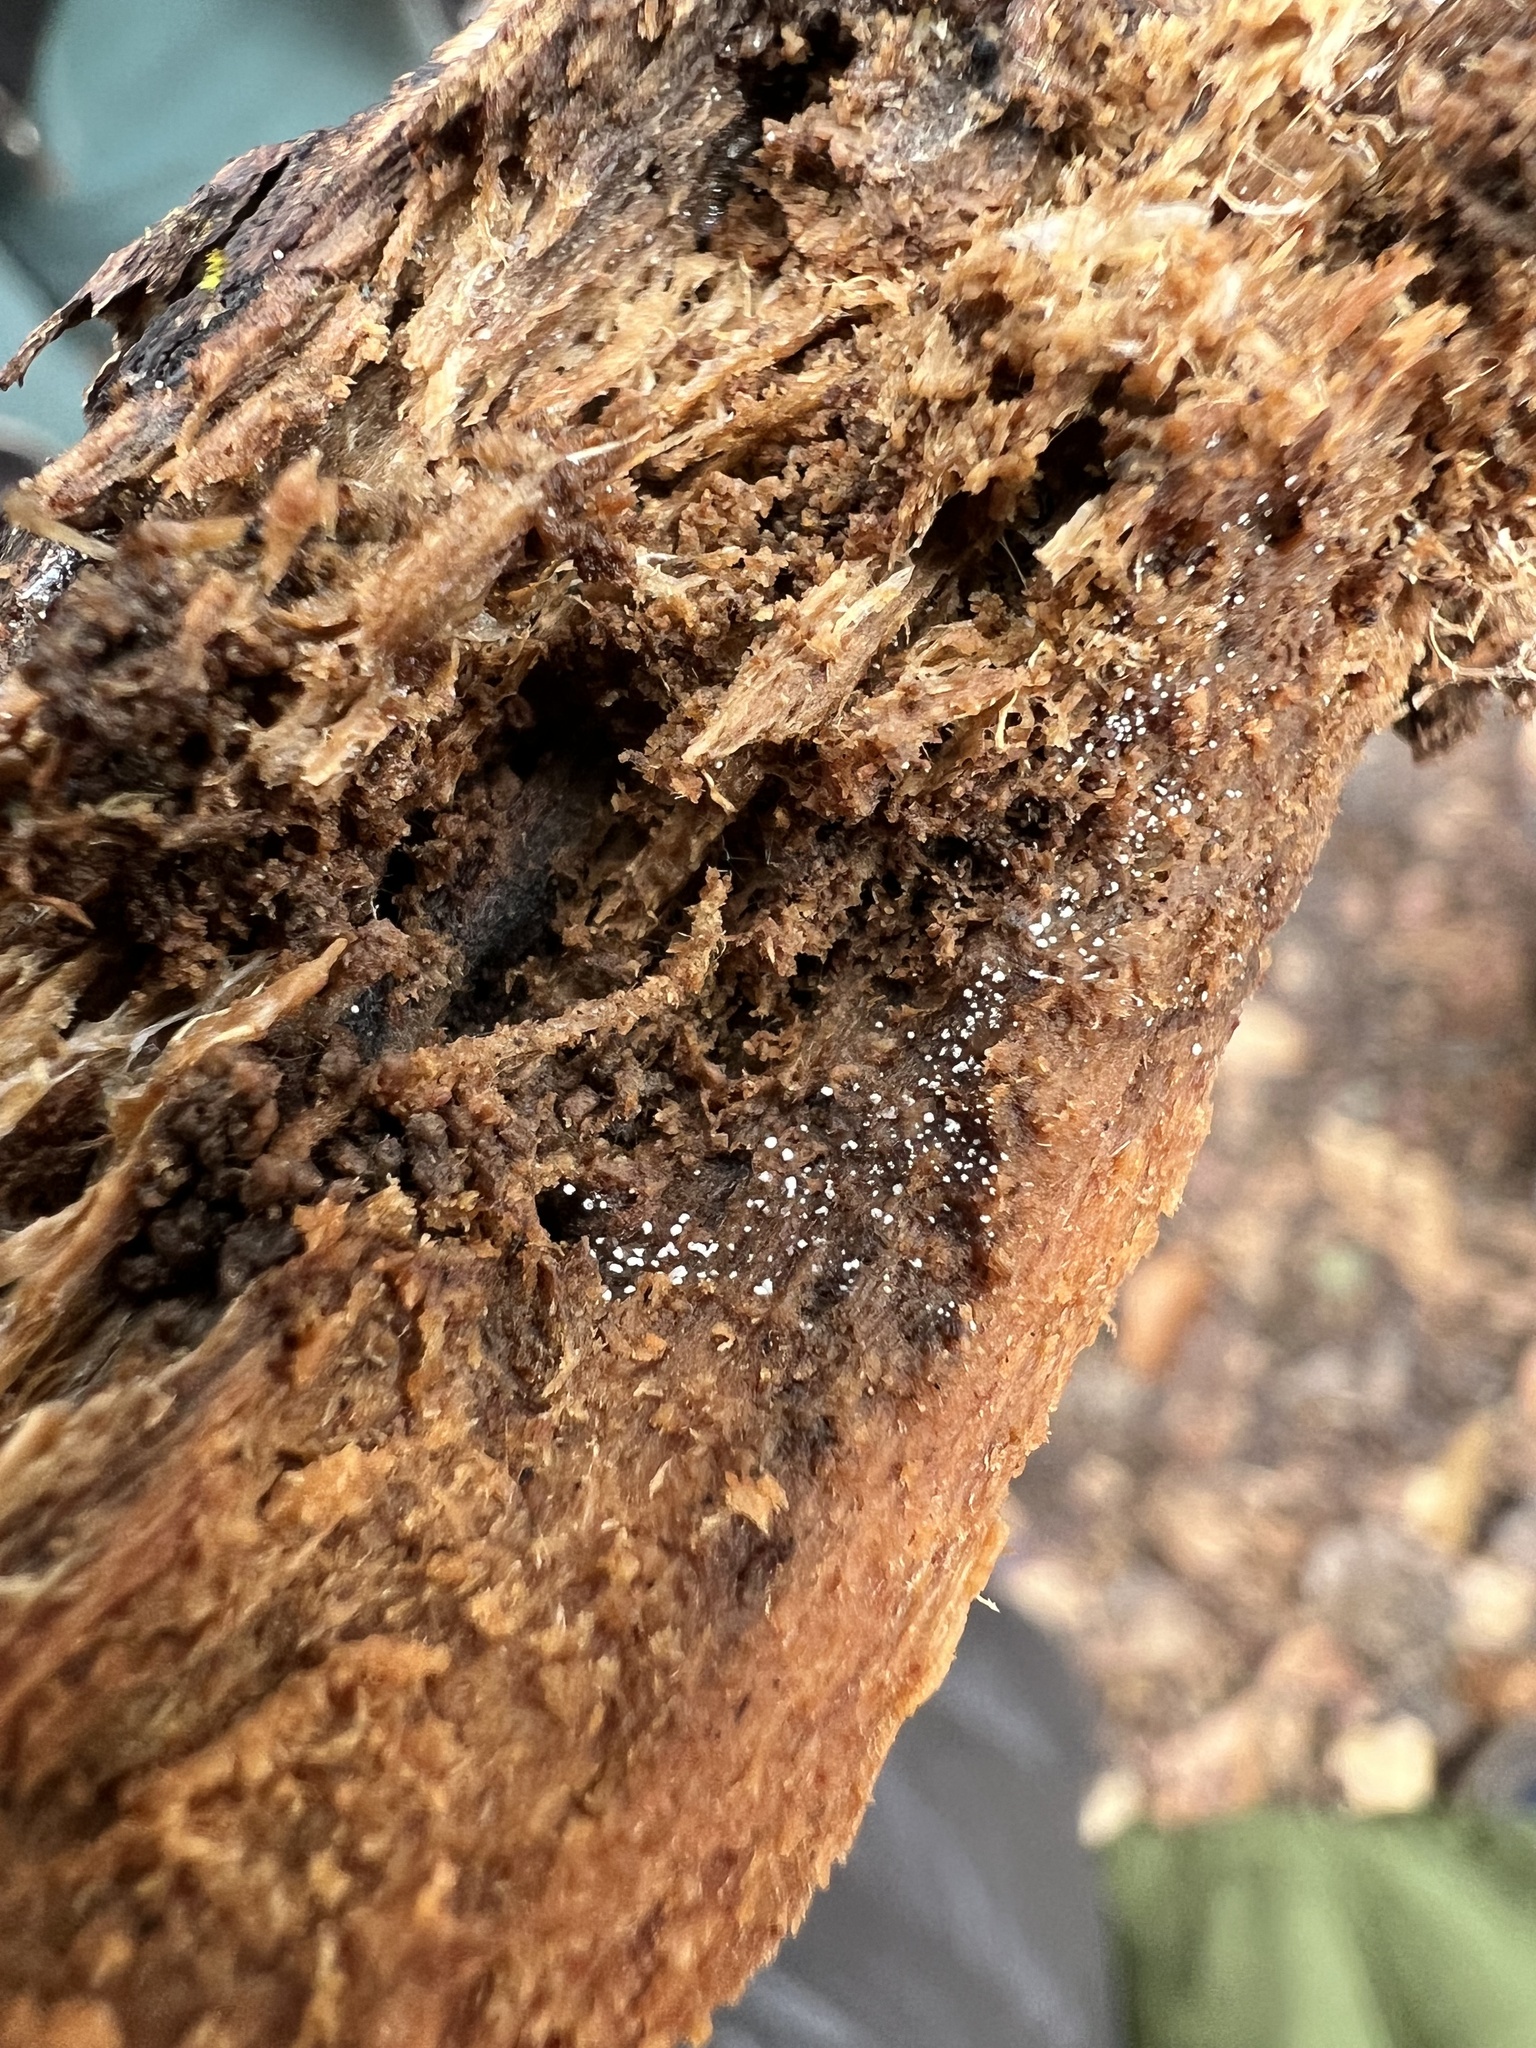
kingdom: Fungi
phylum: Basidiomycota
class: Agaricomycetes
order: Polyporales
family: Meruliaceae
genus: Bulbillomyces
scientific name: Bulbillomyces farinosus
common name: Couscous crust
